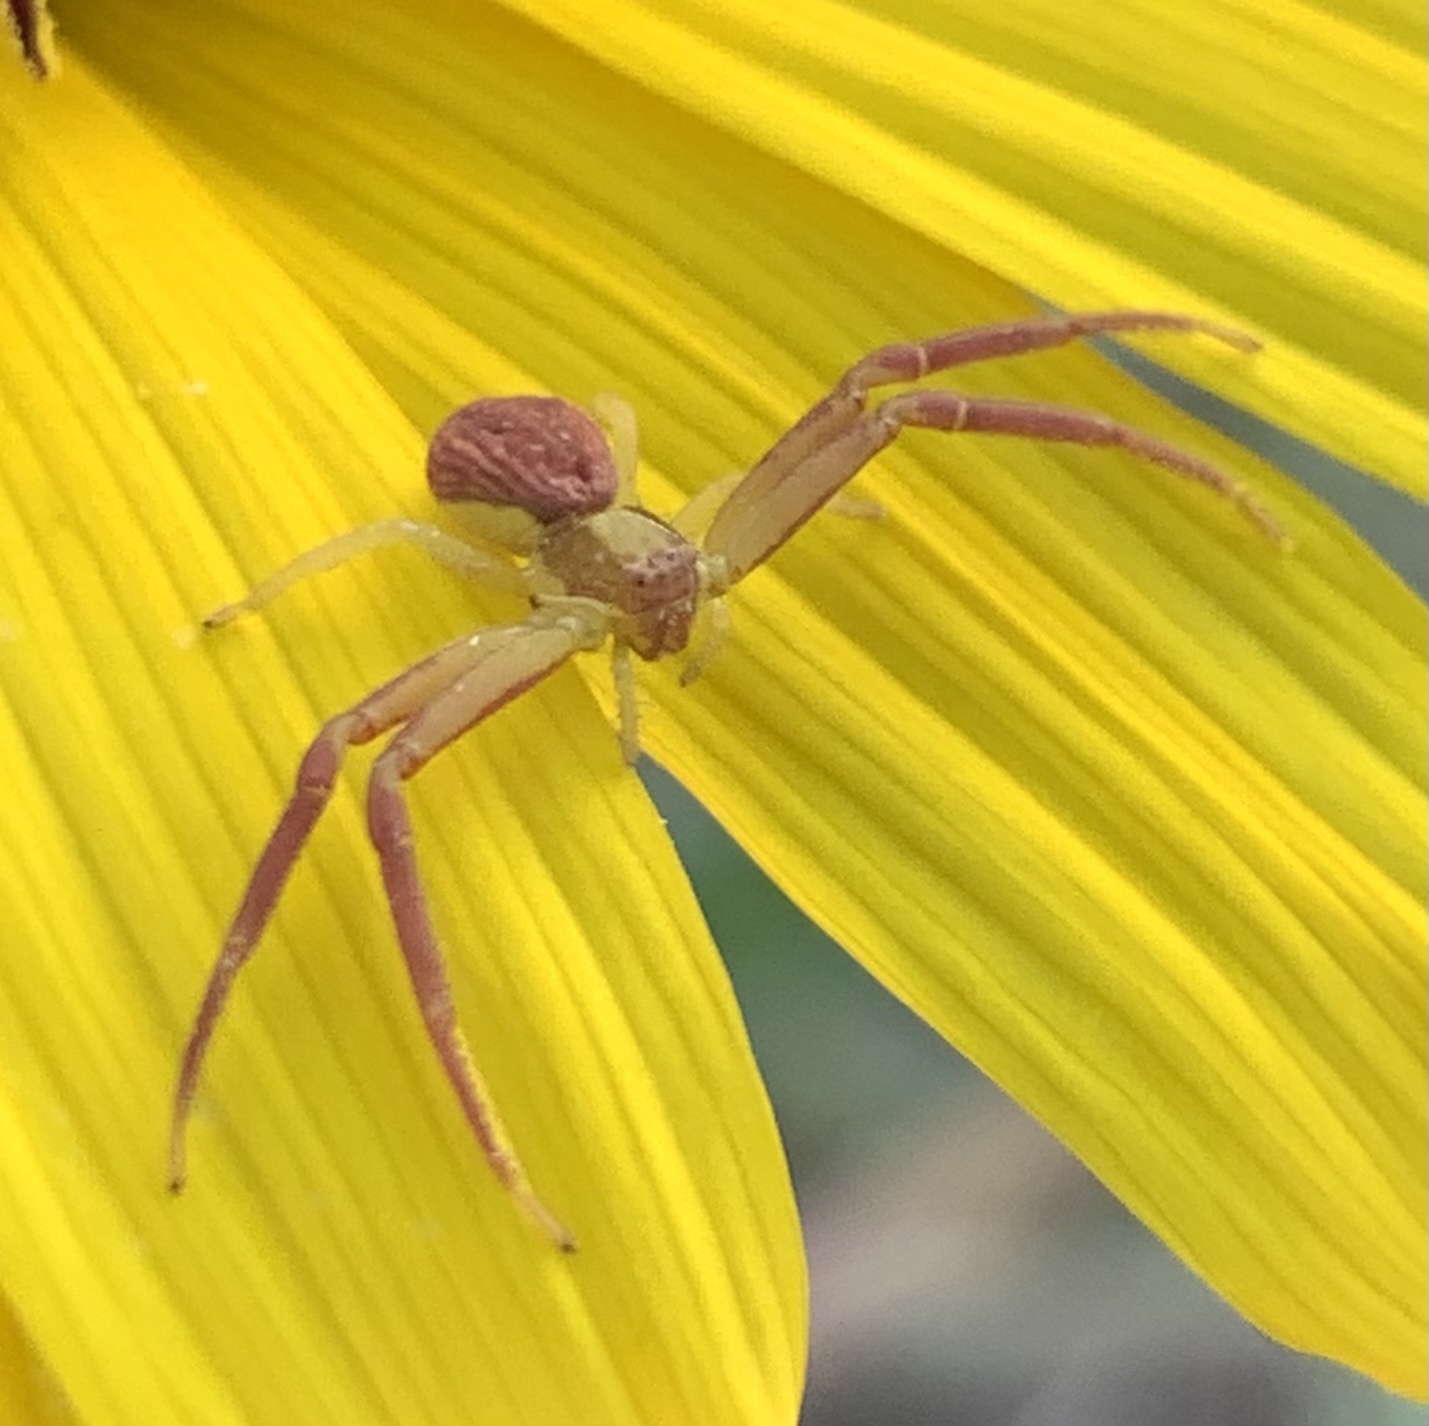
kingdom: Animalia
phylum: Arthropoda
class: Arachnida
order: Araneae
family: Thomisidae
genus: Mecaphesa
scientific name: Mecaphesa asperata
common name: Crab spiders
